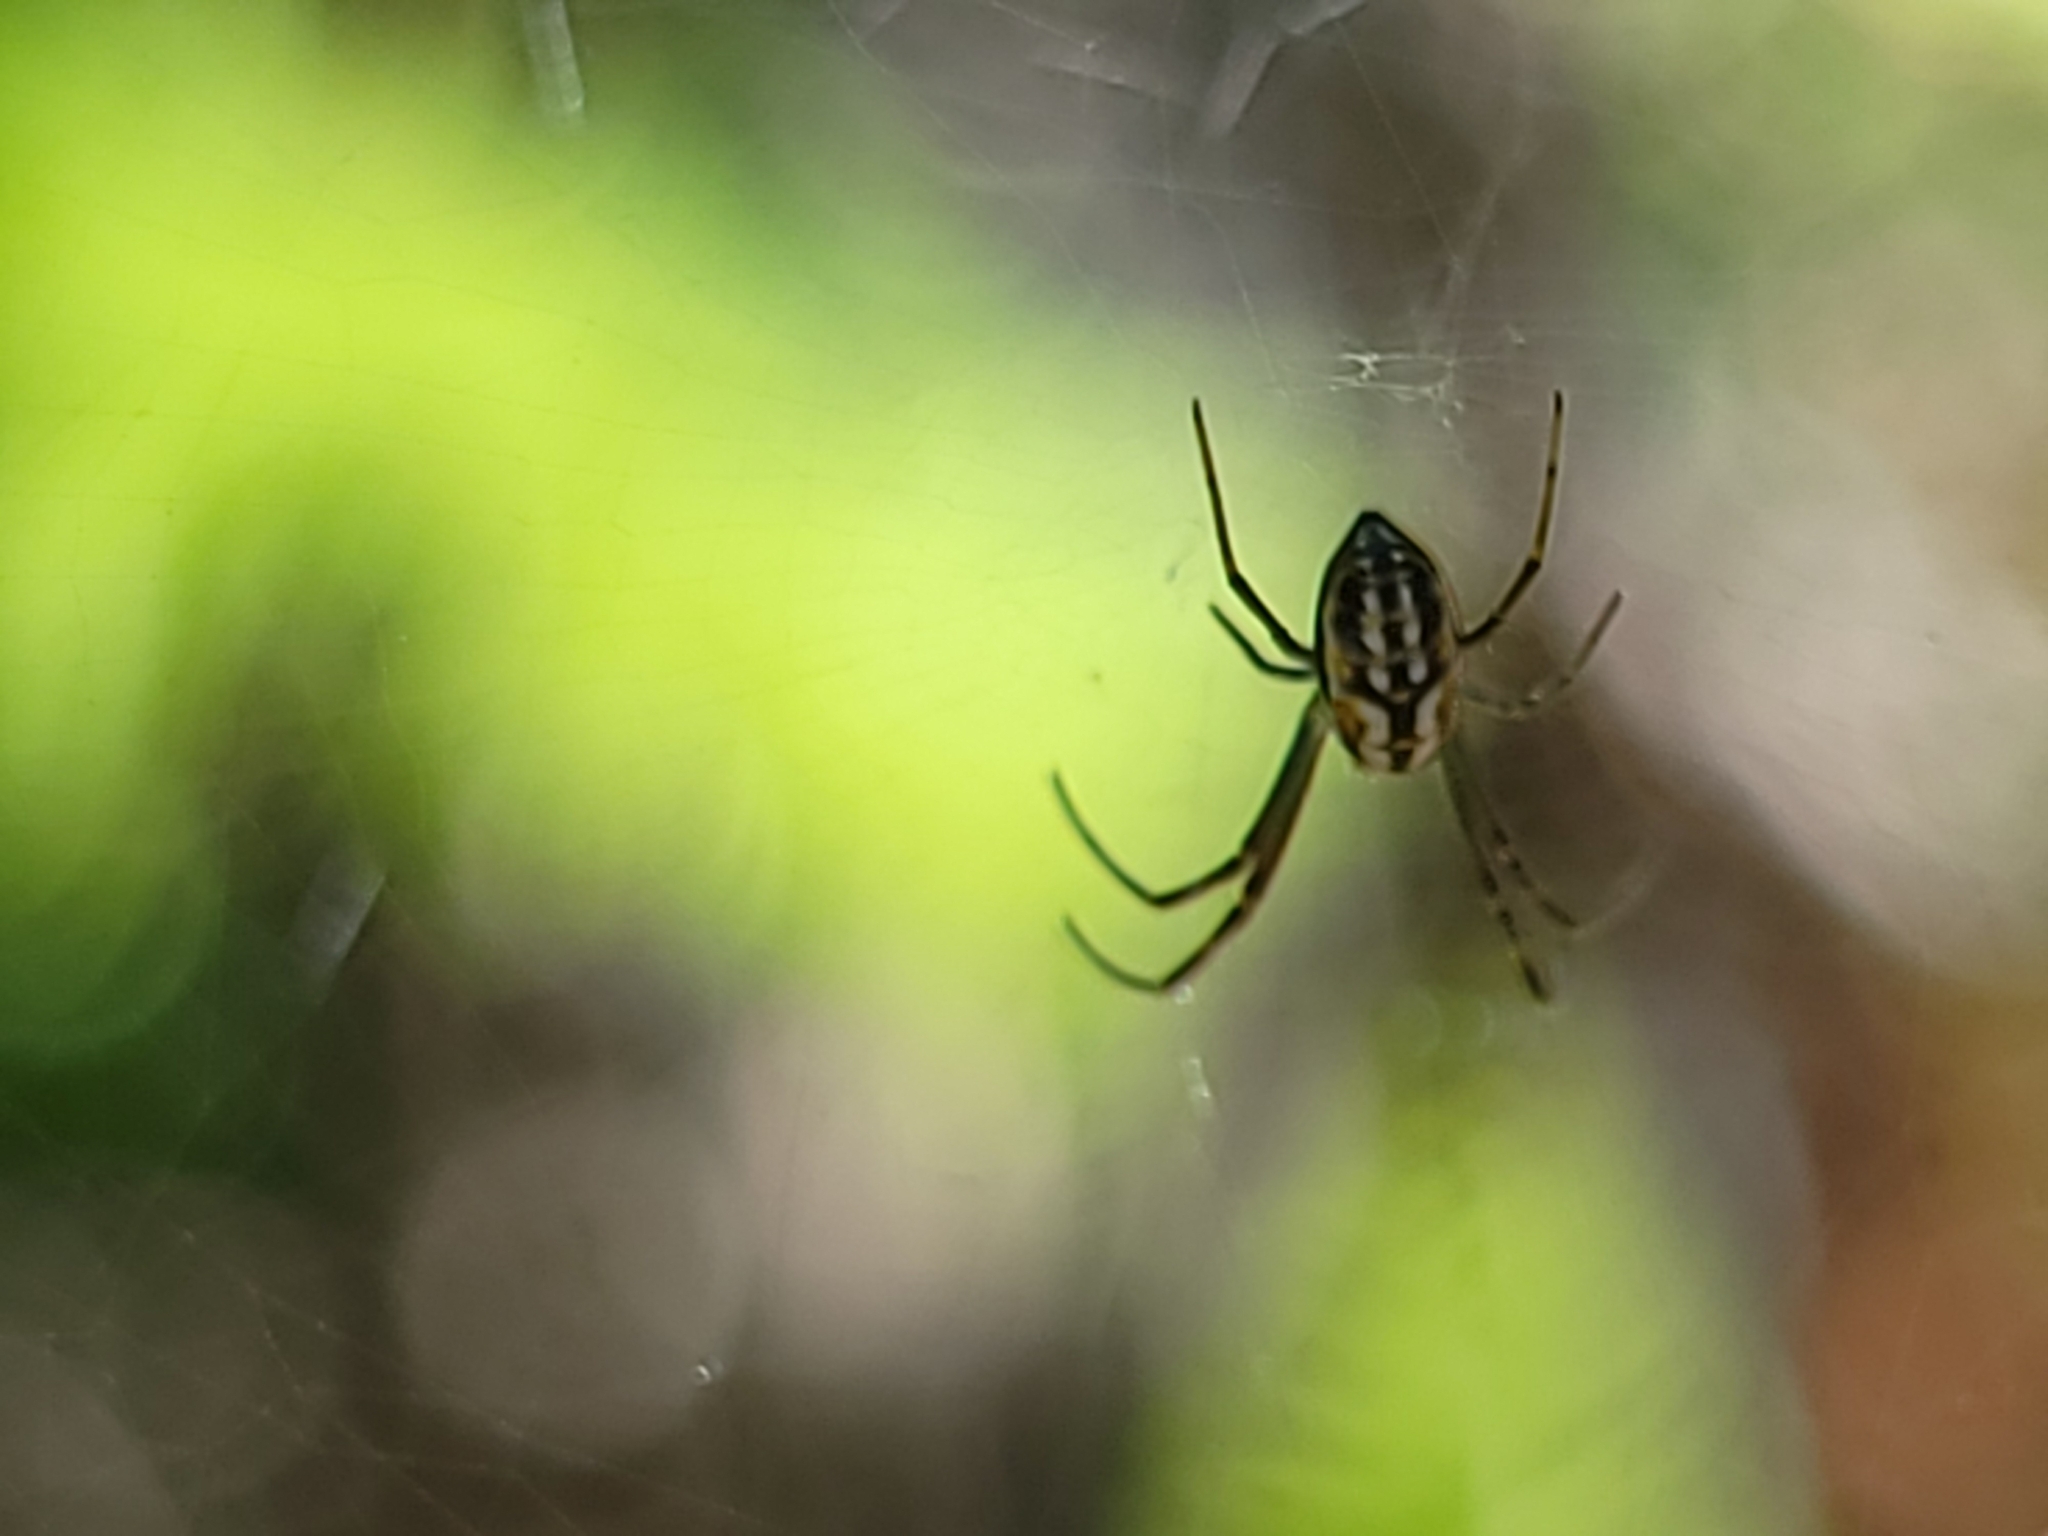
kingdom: Animalia
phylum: Arthropoda
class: Arachnida
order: Araneae
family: Araneidae
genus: Trichonephila
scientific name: Trichonephila clavipes
